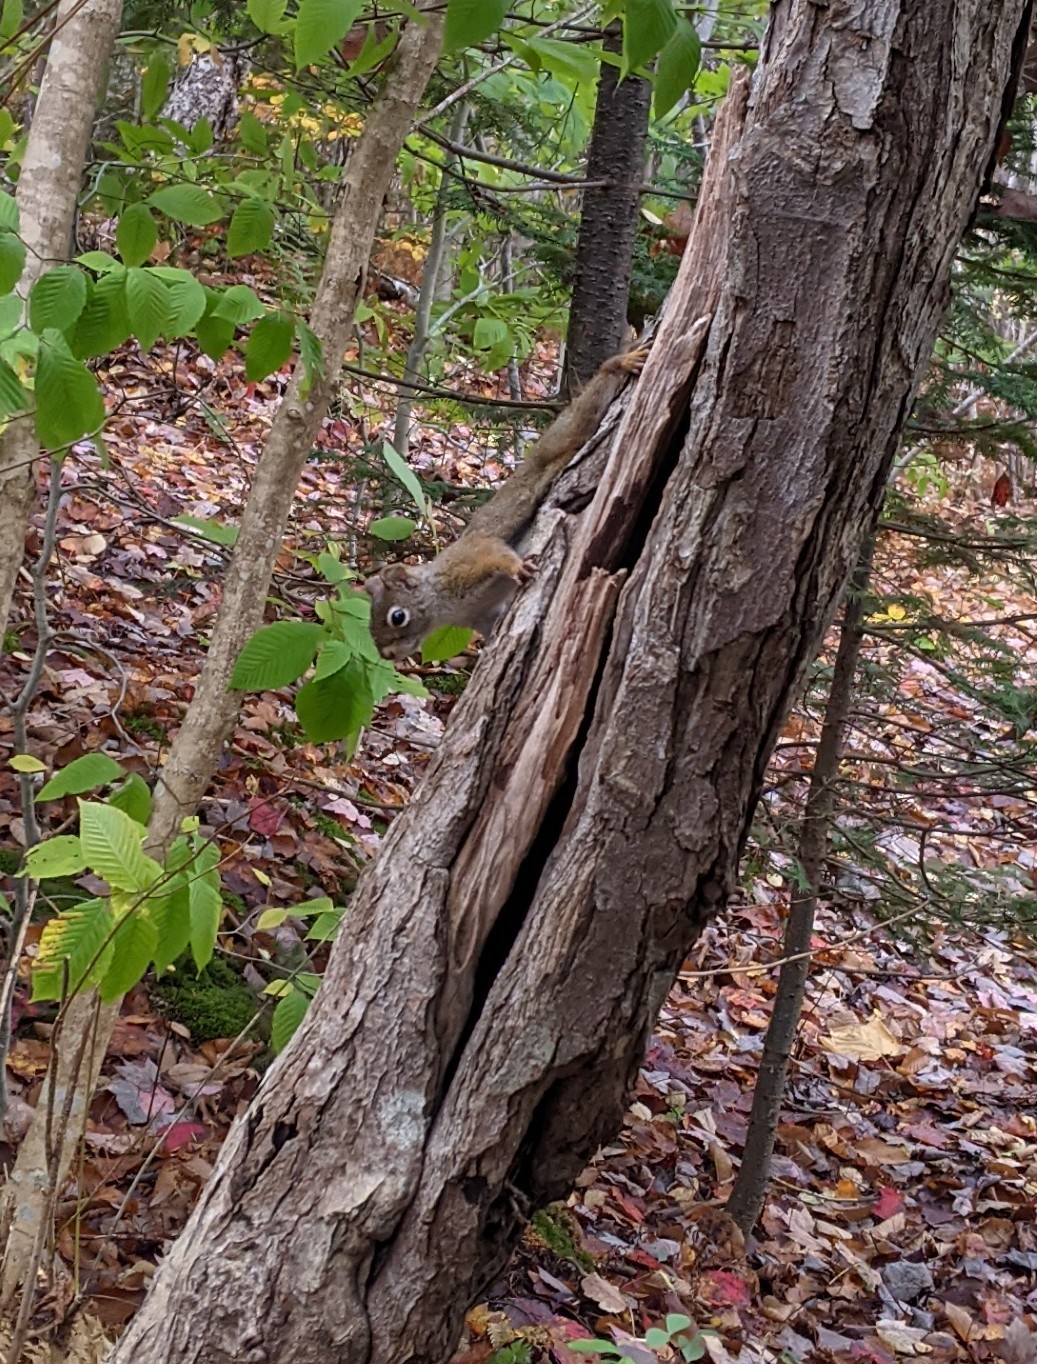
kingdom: Animalia
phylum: Chordata
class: Mammalia
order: Rodentia
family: Sciuridae
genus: Tamiasciurus
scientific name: Tamiasciurus hudsonicus
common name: Red squirrel
